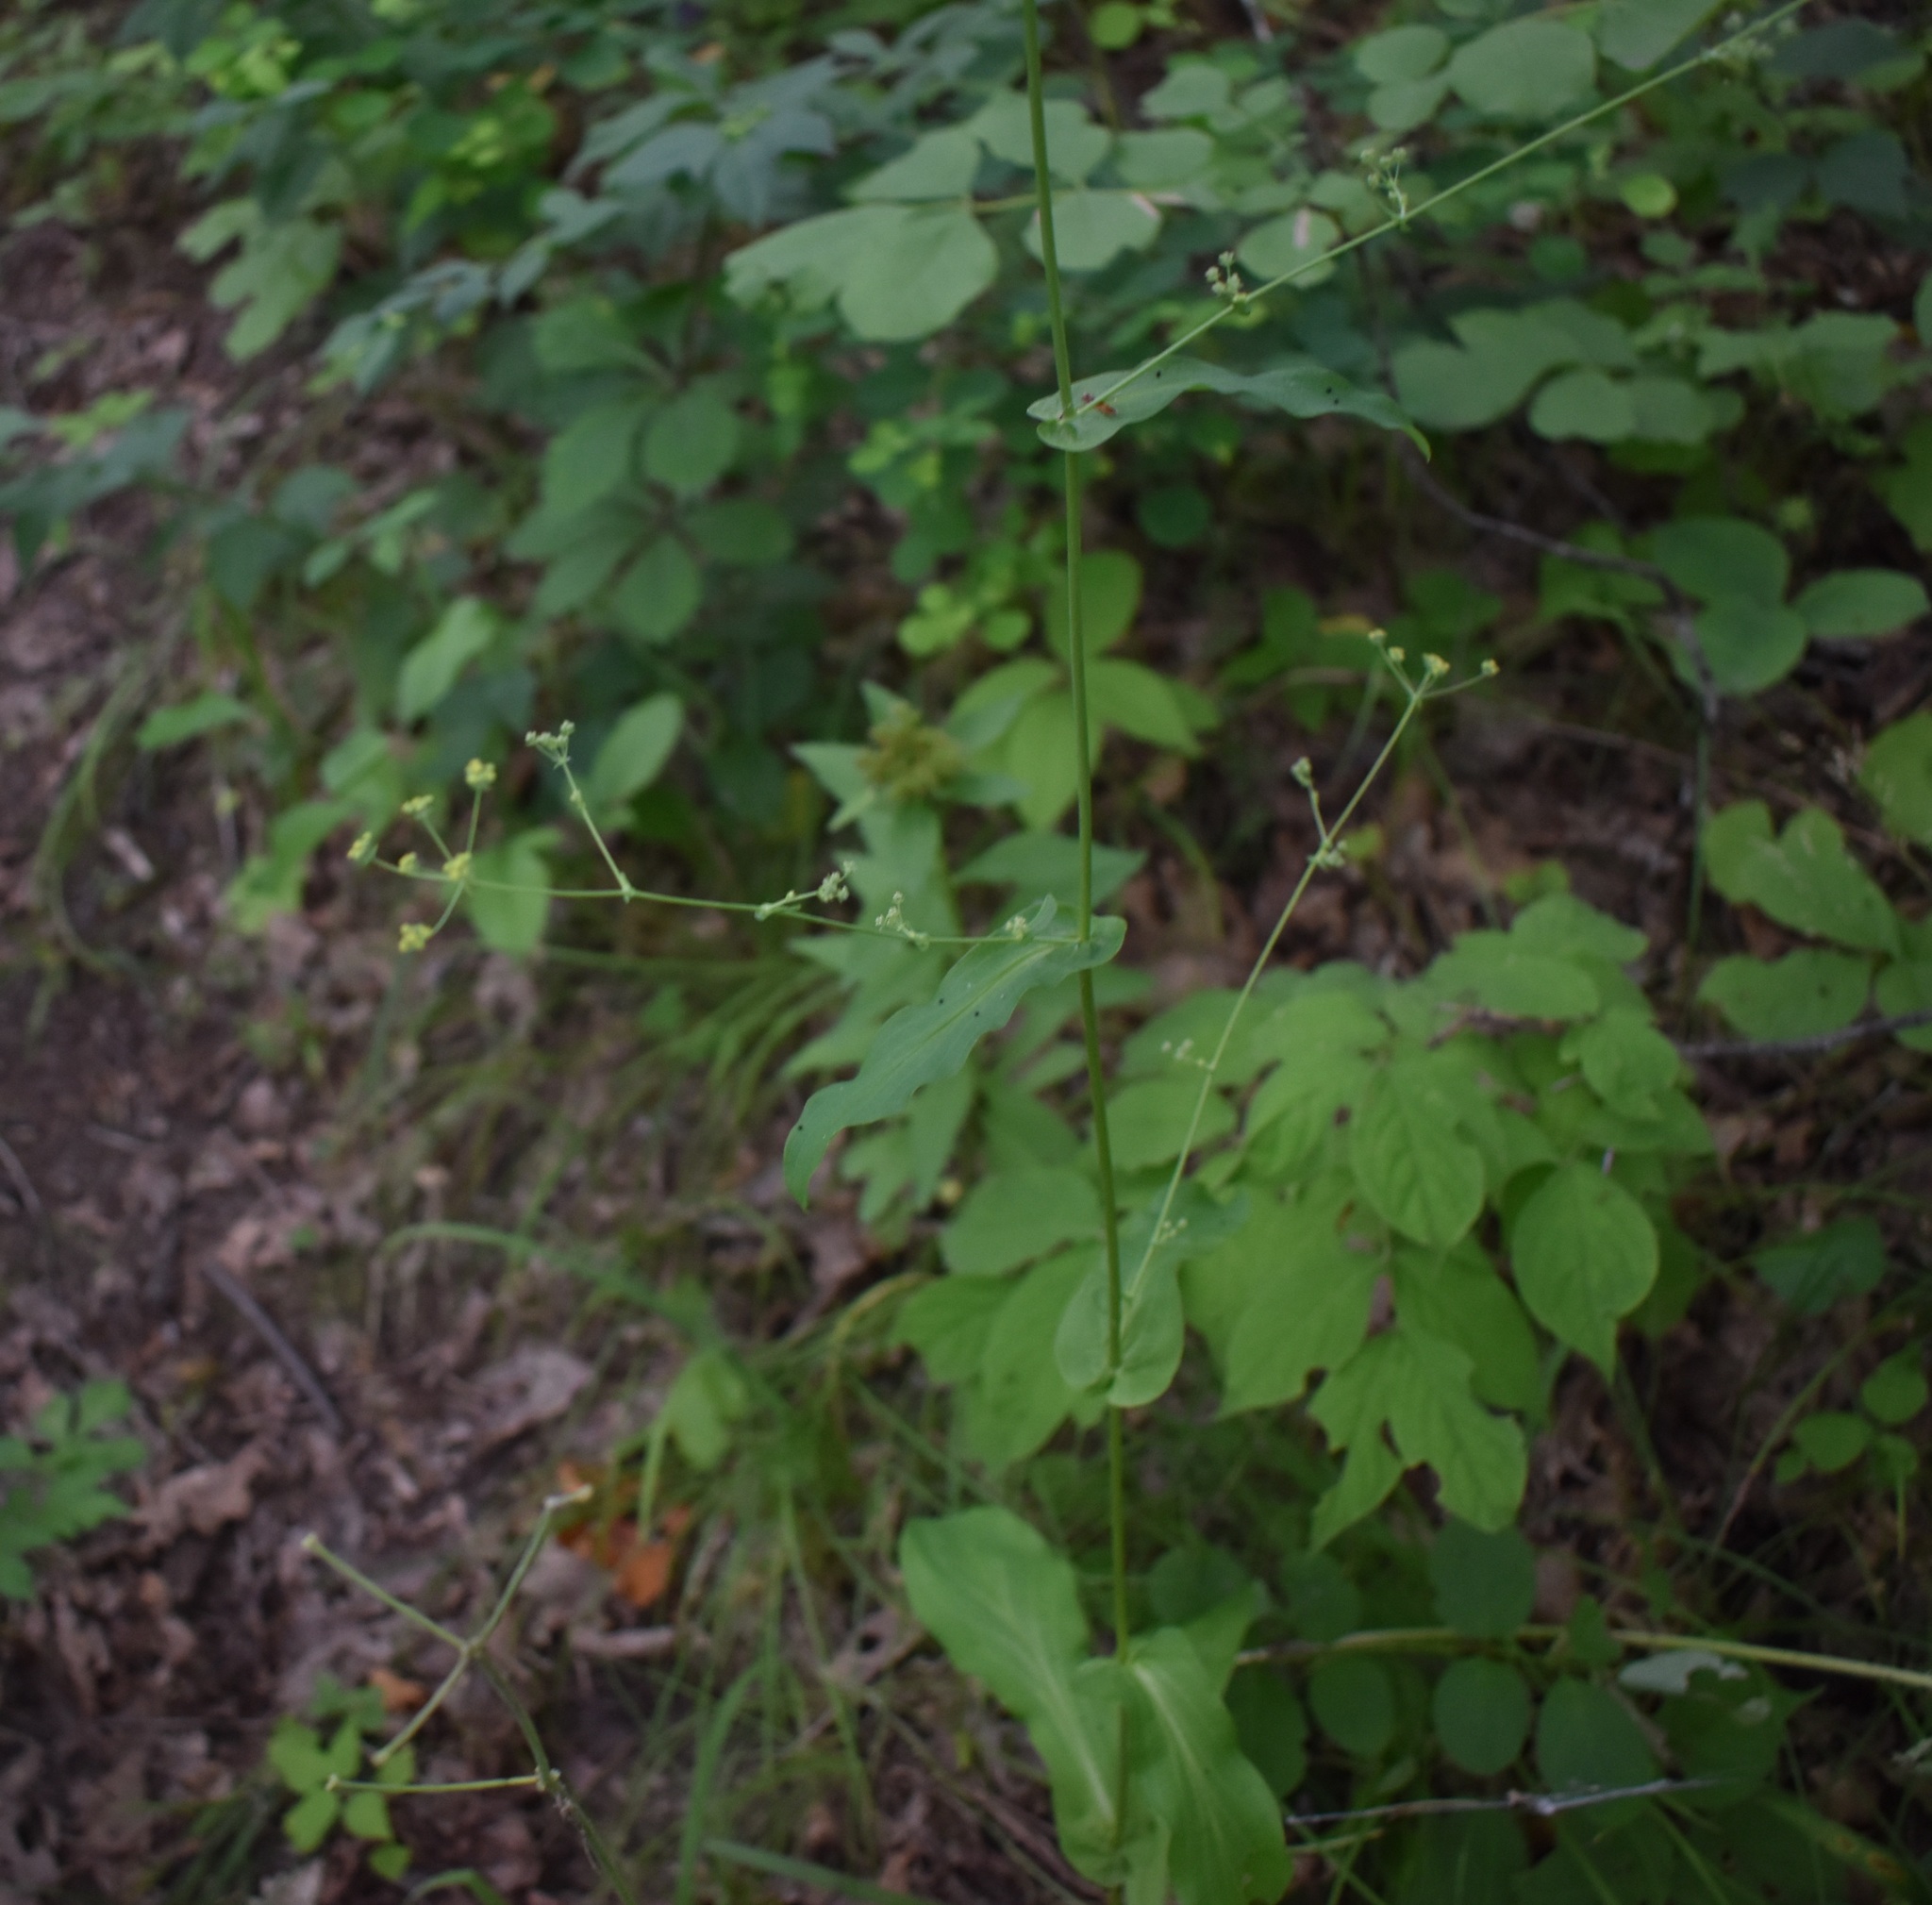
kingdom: Plantae
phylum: Tracheophyta
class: Magnoliopsida
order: Apiales
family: Apiaceae
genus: Bupleurum
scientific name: Bupleurum longiradiatum
